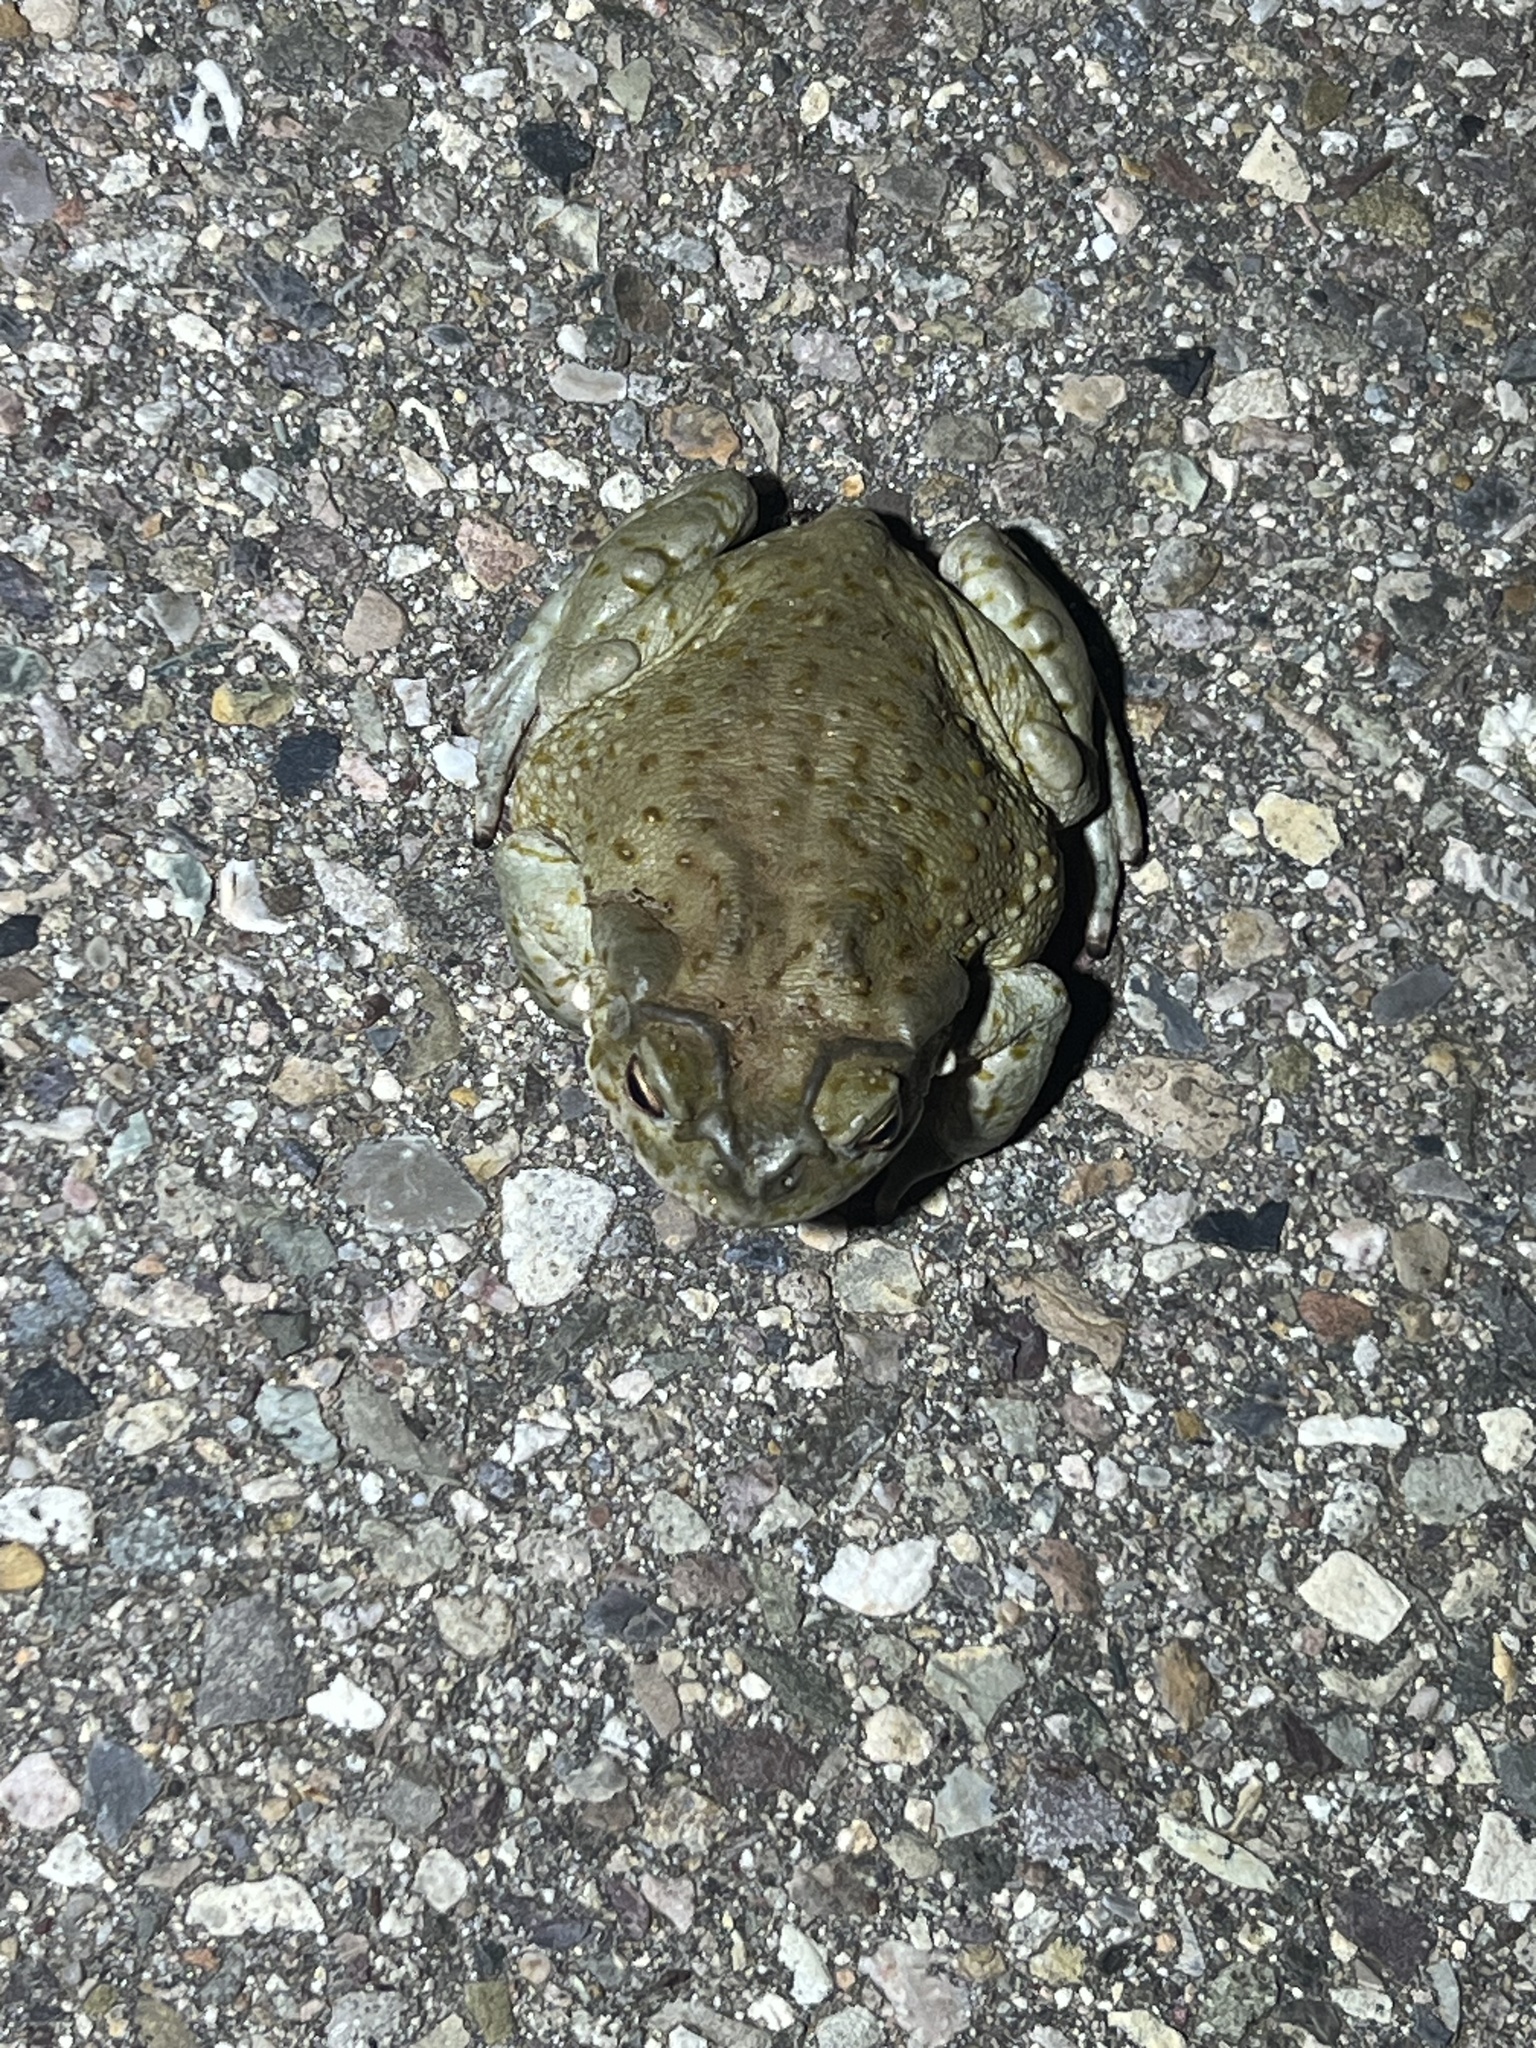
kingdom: Animalia
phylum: Chordata
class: Amphibia
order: Anura
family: Bufonidae
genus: Incilius
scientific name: Incilius alvarius
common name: Sonoran desert toad
